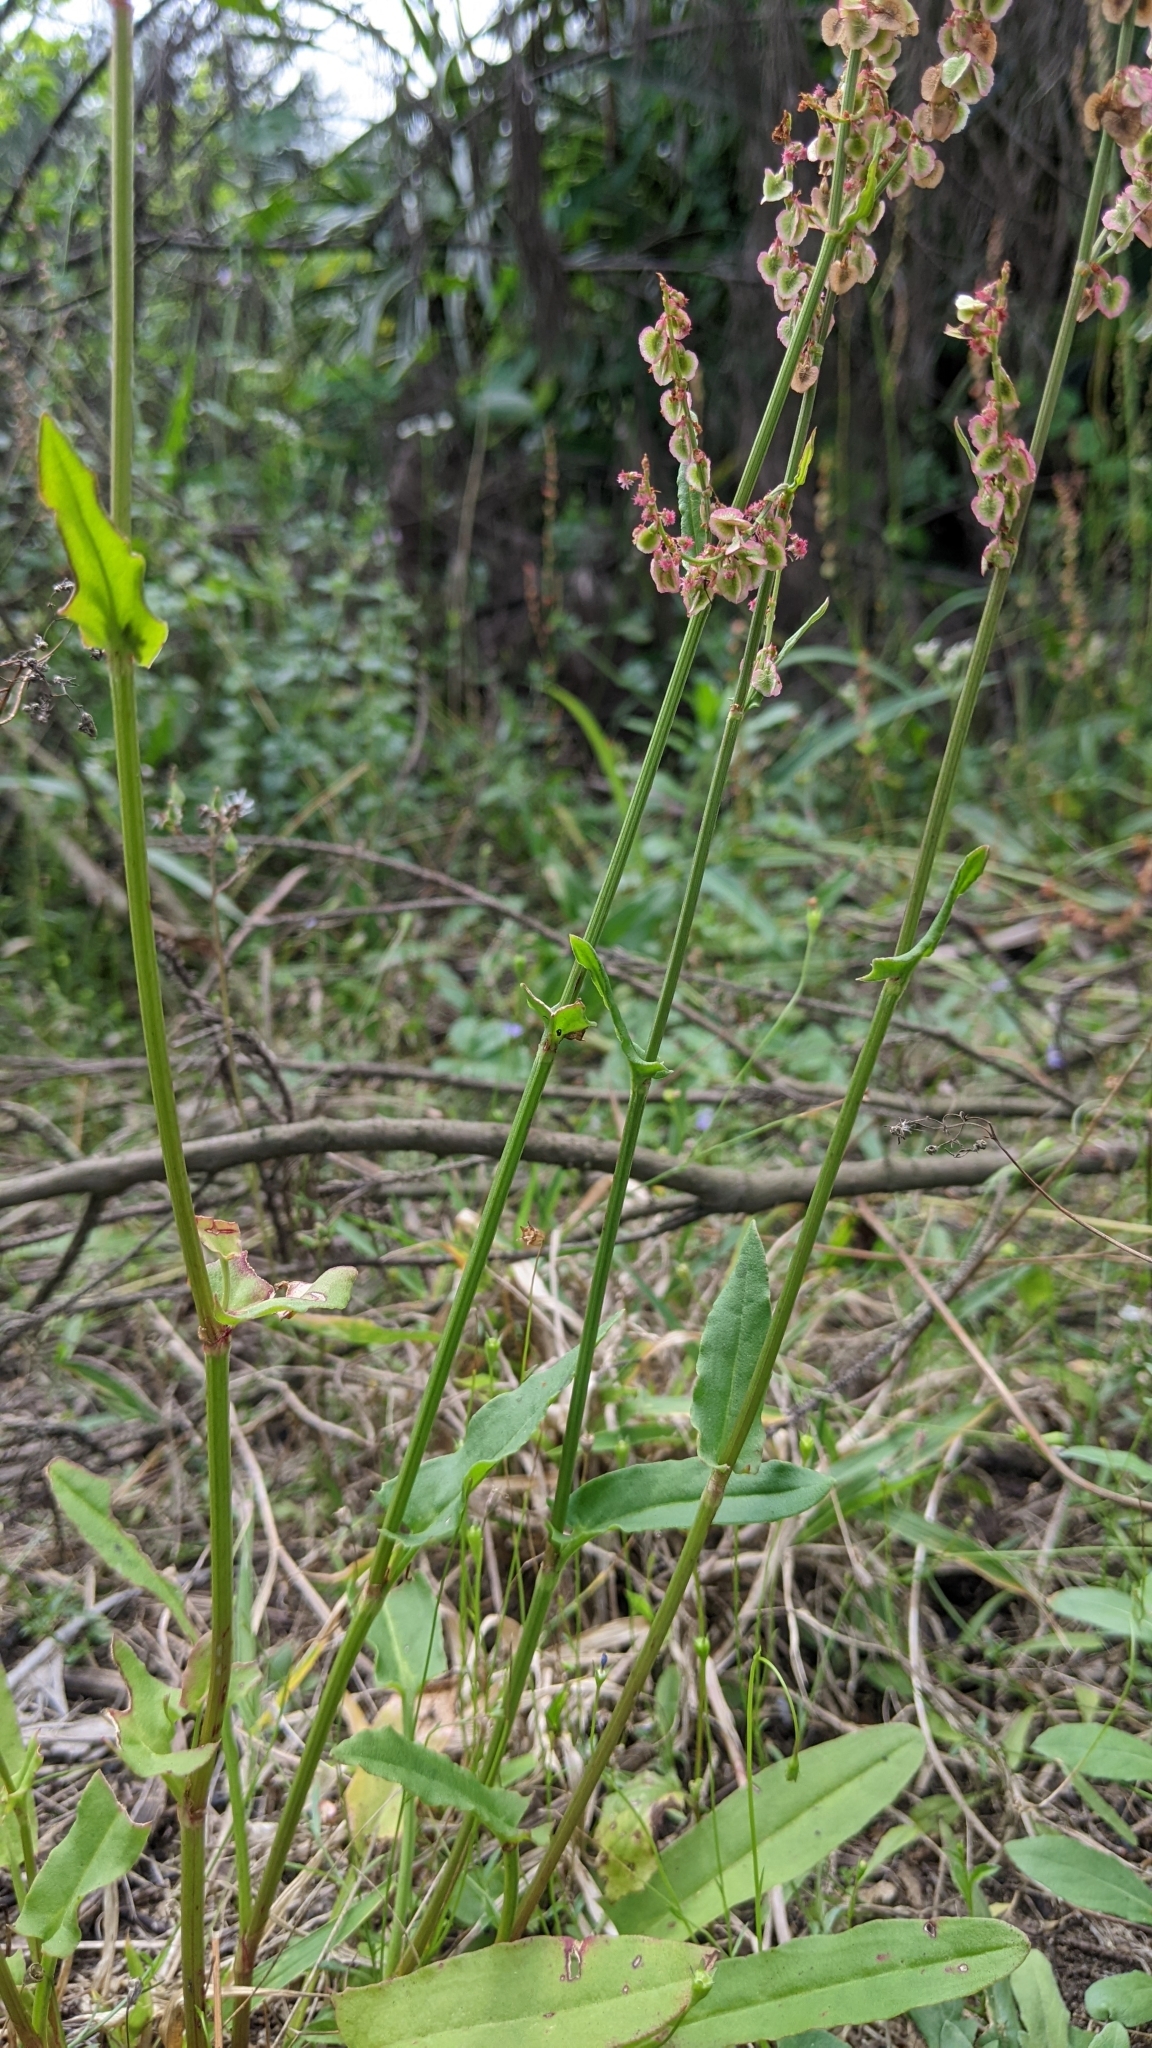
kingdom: Plantae
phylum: Tracheophyta
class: Magnoliopsida
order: Caryophyllales
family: Polygonaceae
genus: Rumex
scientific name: Rumex acetosa
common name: Garden sorrel
